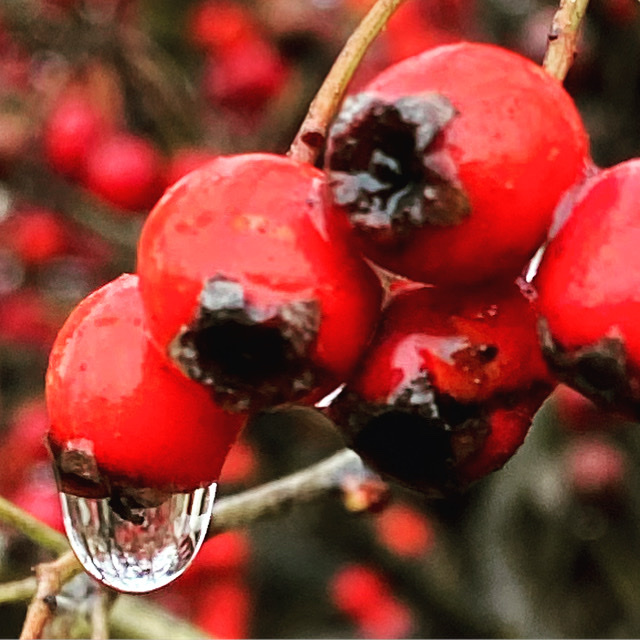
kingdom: Plantae
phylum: Tracheophyta
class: Magnoliopsida
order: Rosales
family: Rosaceae
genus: Crataegus
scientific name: Crataegus monogyna
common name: Hawthorn
